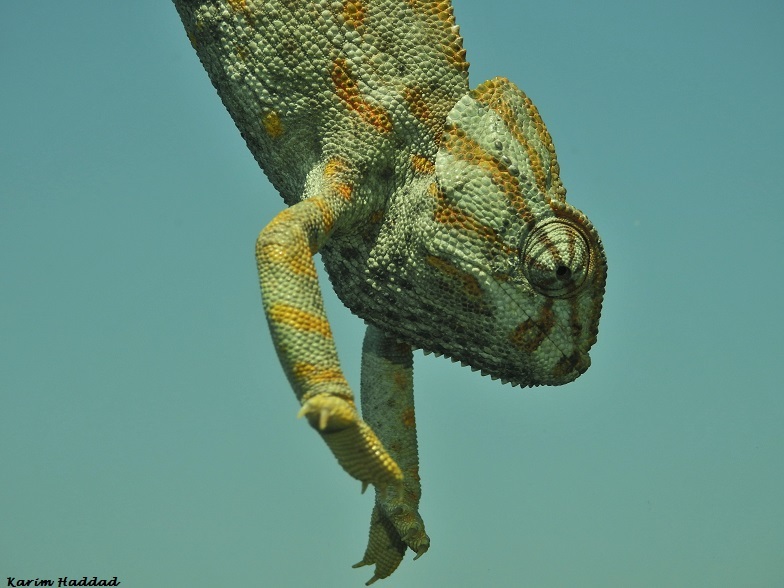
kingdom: Animalia
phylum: Chordata
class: Squamata
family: Chamaeleonidae
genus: Chamaeleo
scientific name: Chamaeleo chamaeleon
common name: Mediterranean chameleon
